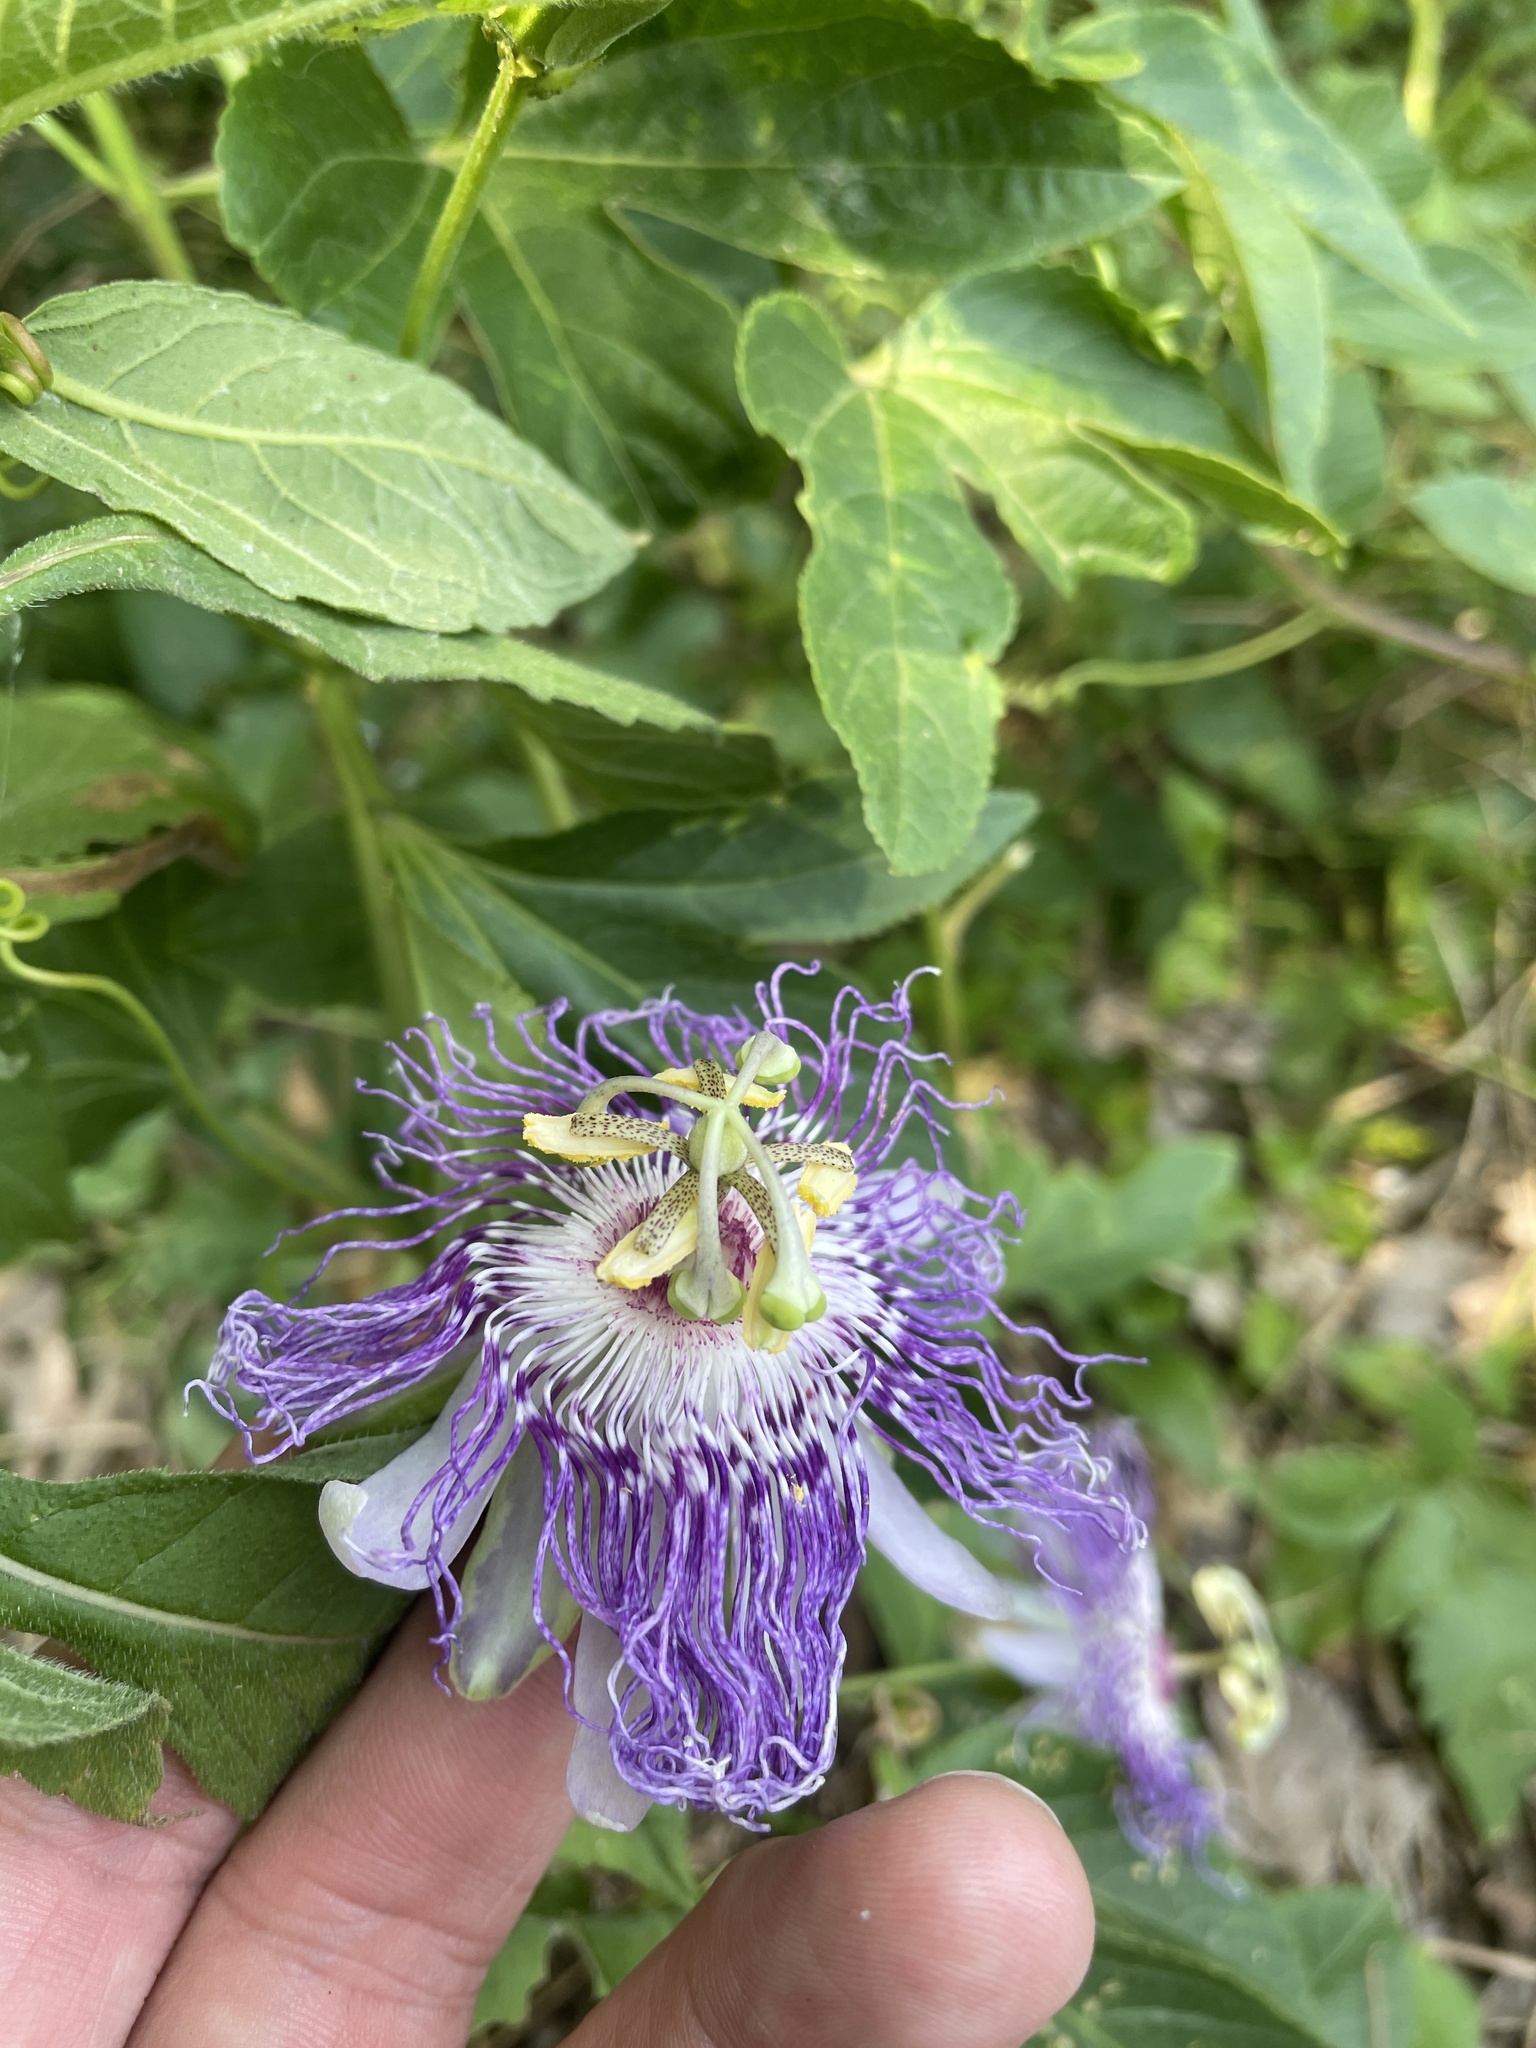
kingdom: Plantae
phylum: Tracheophyta
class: Magnoliopsida
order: Malpighiales
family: Passifloraceae
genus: Passiflora
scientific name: Passiflora incarnata
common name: Apricot-vine
